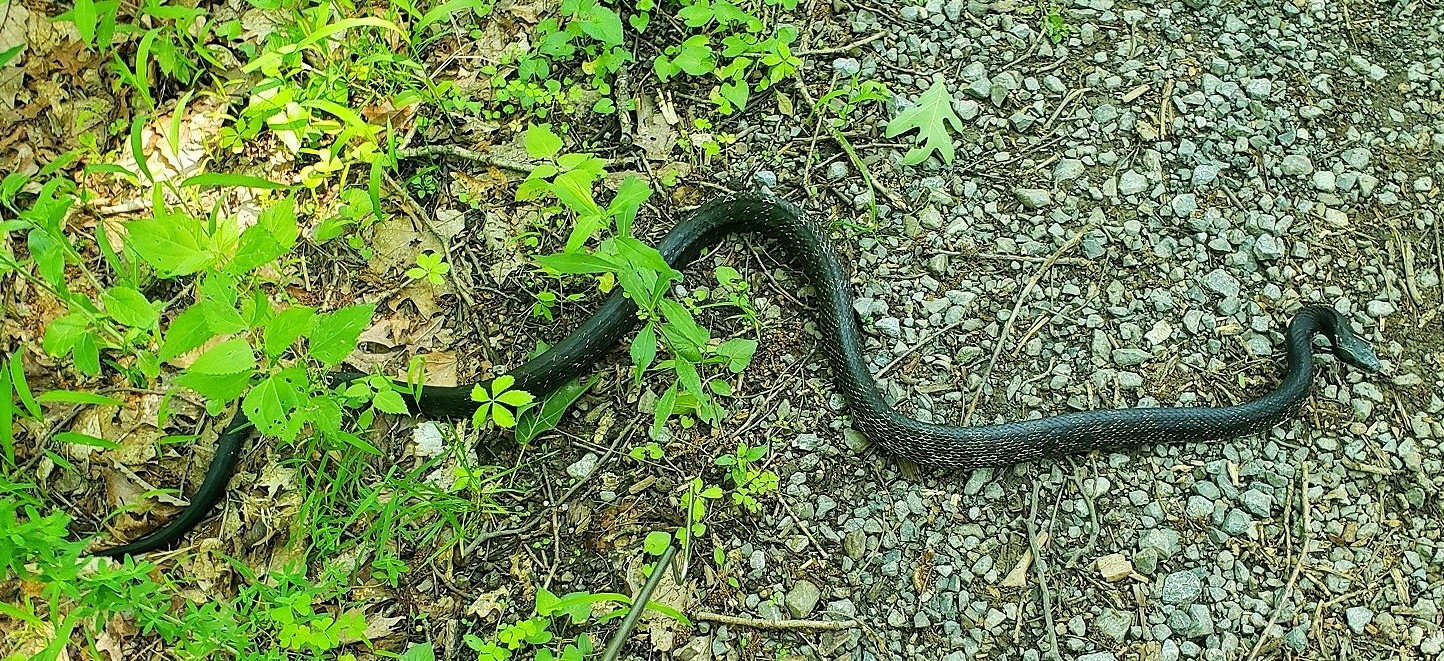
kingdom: Animalia
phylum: Chordata
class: Squamata
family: Colubridae
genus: Pantherophis
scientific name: Pantherophis alleghaniensis
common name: Eastern rat snake
